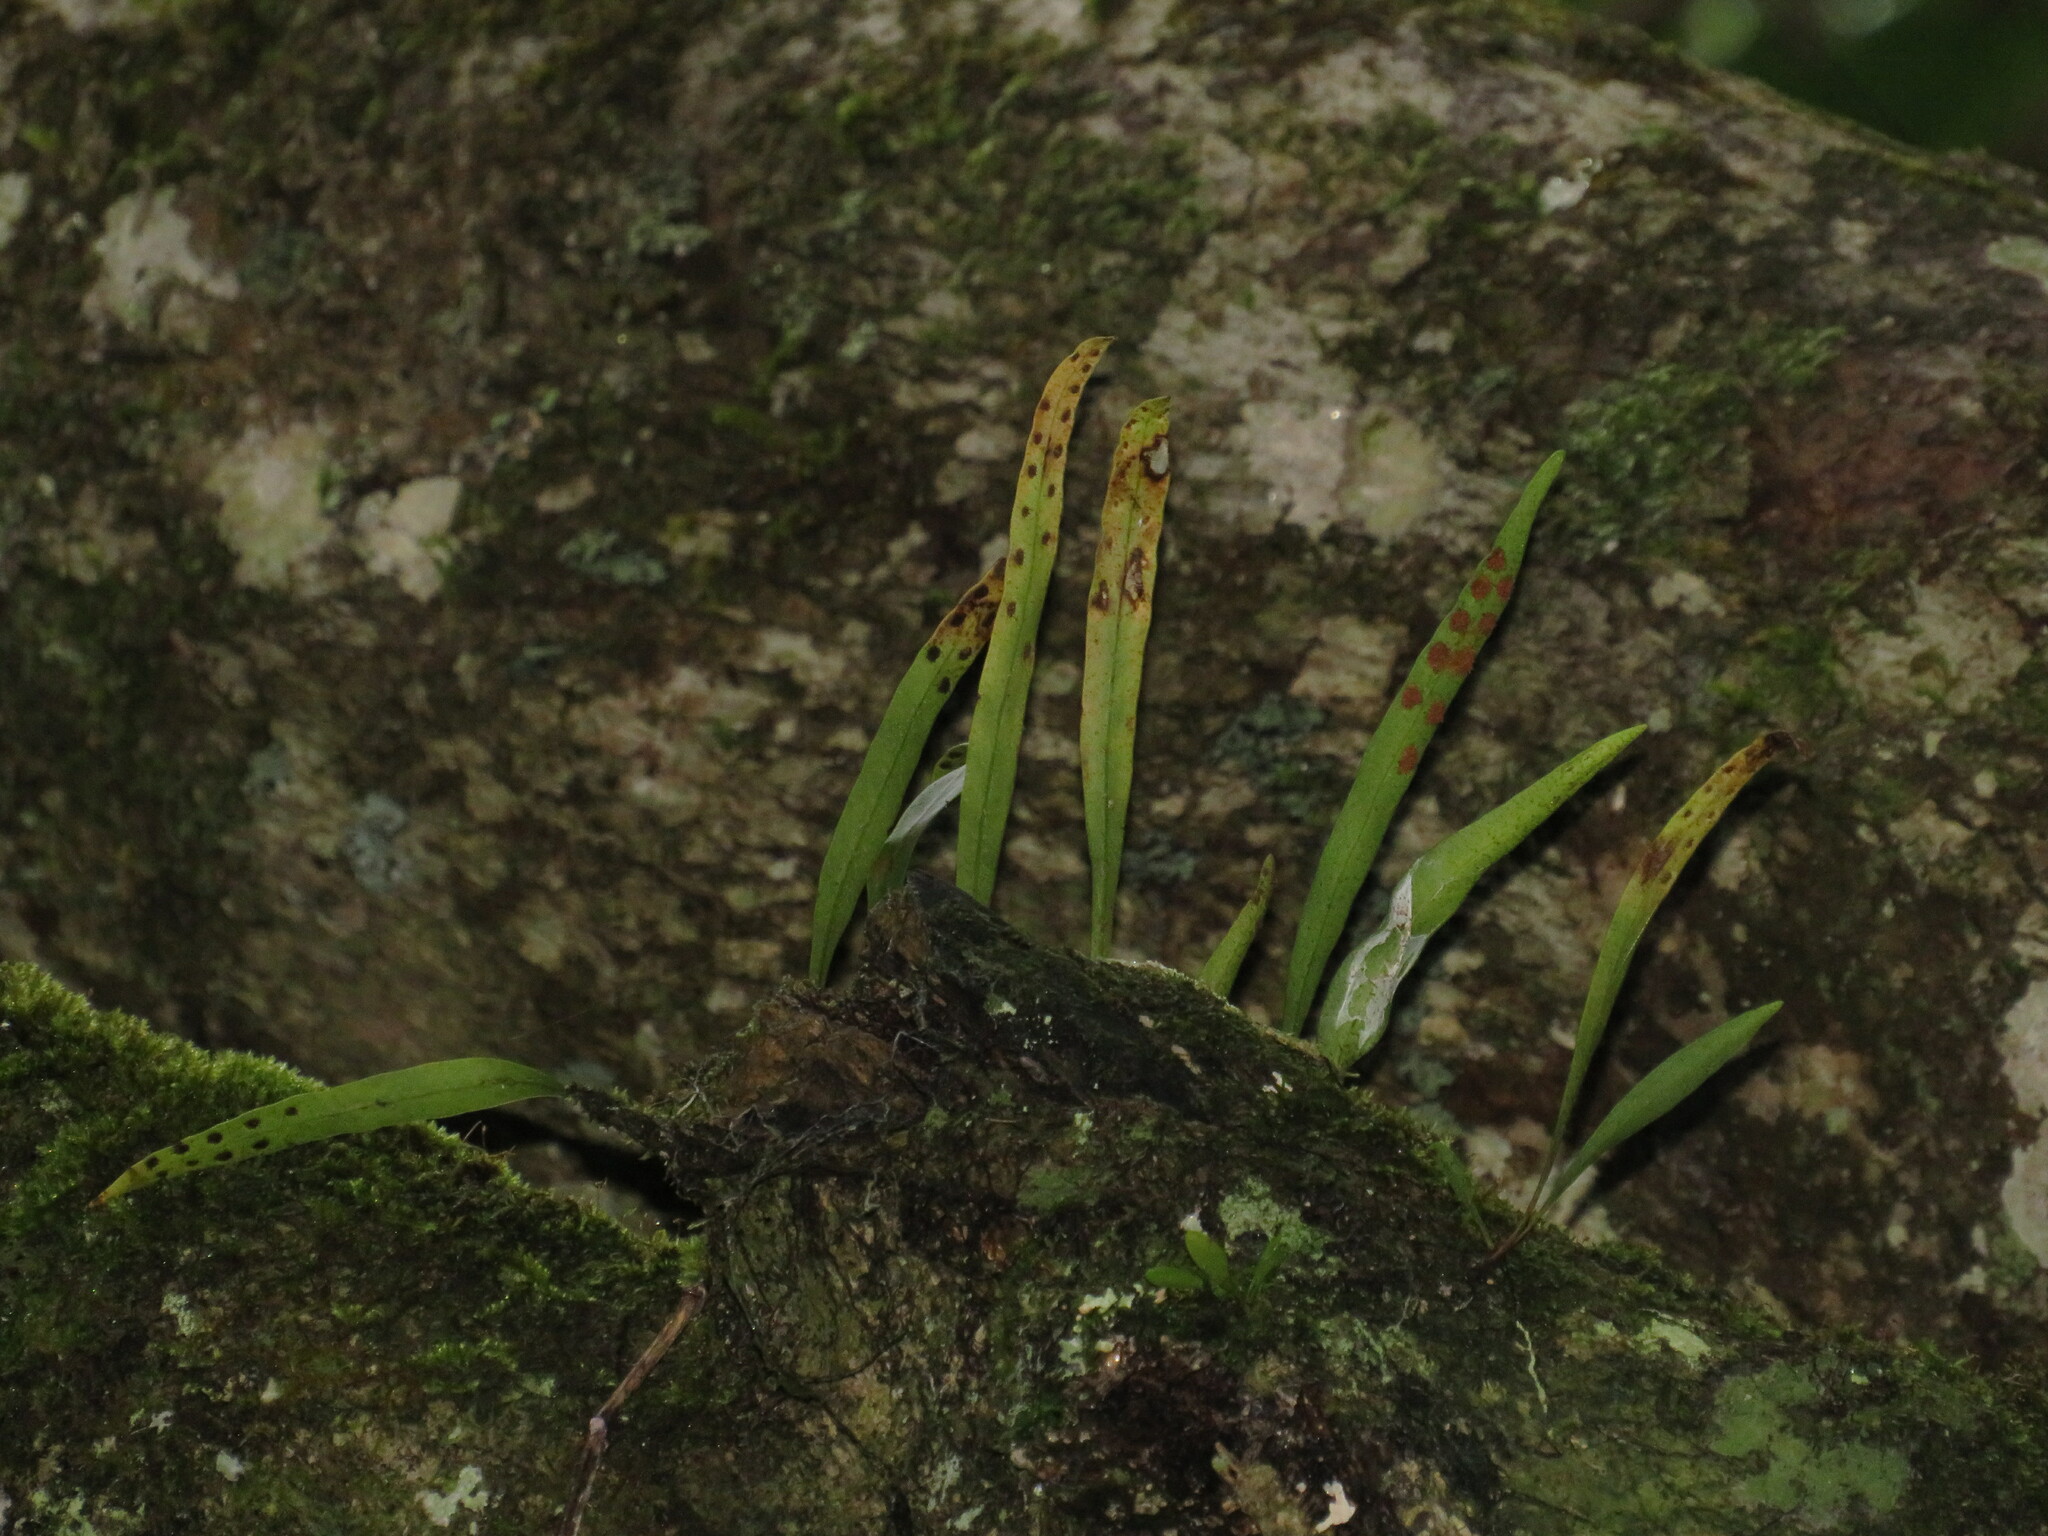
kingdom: Plantae
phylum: Tracheophyta
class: Polypodiopsida
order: Polypodiales
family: Polypodiaceae
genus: Lepisorus
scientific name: Lepisorus schraderi
